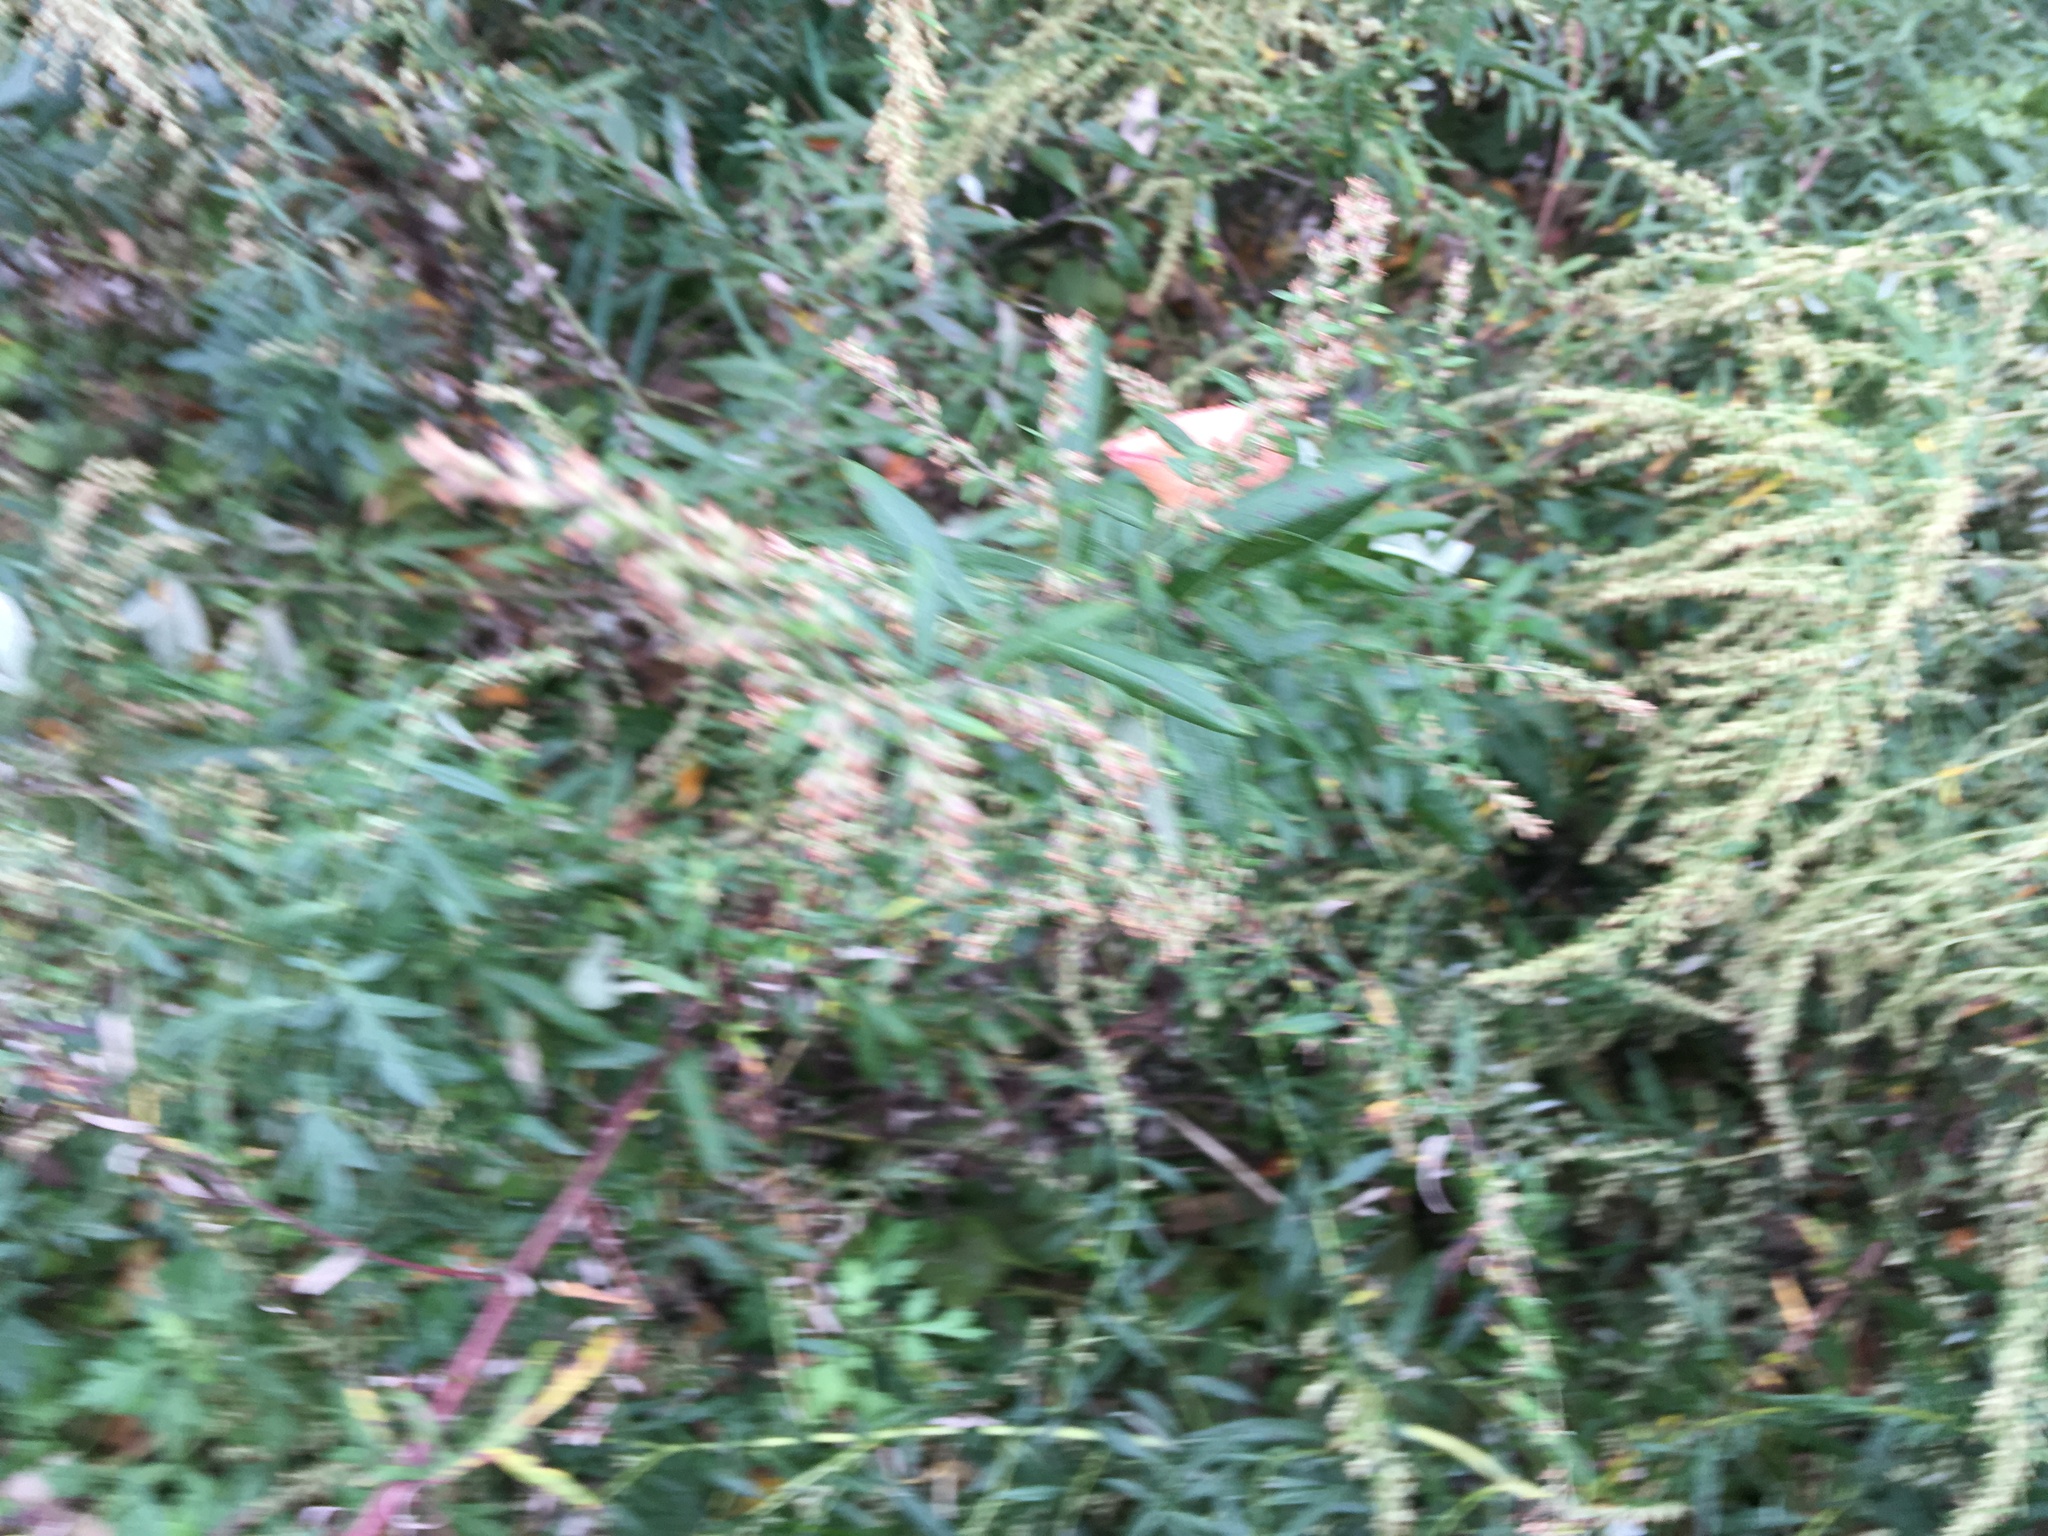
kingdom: Plantae
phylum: Tracheophyta
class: Magnoliopsida
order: Asterales
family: Asteraceae
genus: Artemisia
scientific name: Artemisia vulgaris
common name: Mugwort
